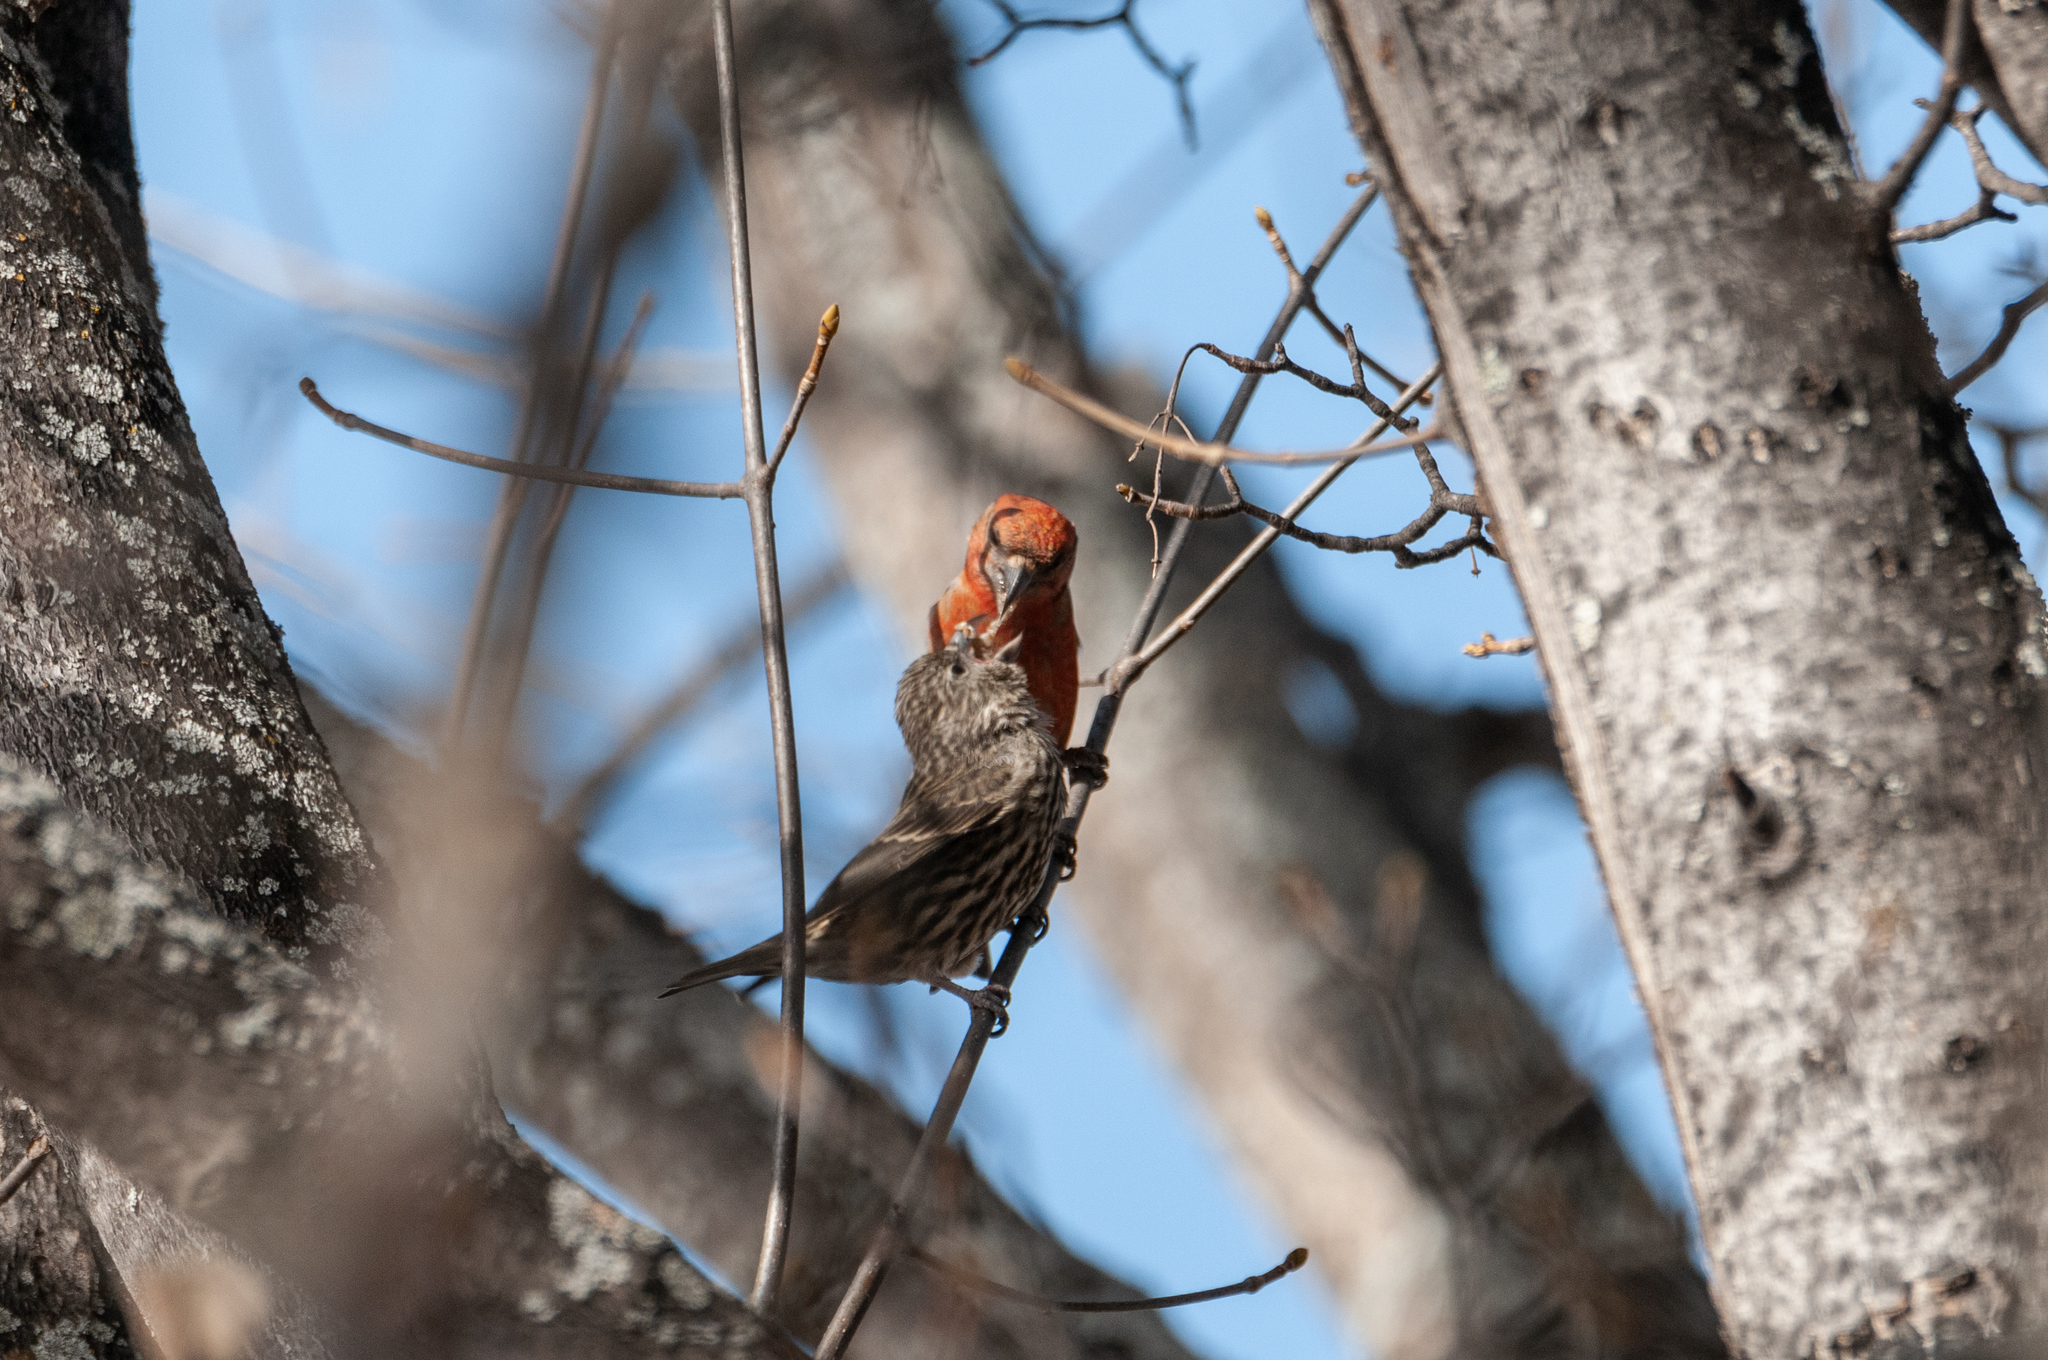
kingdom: Animalia
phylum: Chordata
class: Aves
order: Passeriformes
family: Fringillidae
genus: Loxia
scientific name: Loxia curvirostra
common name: Red crossbill
